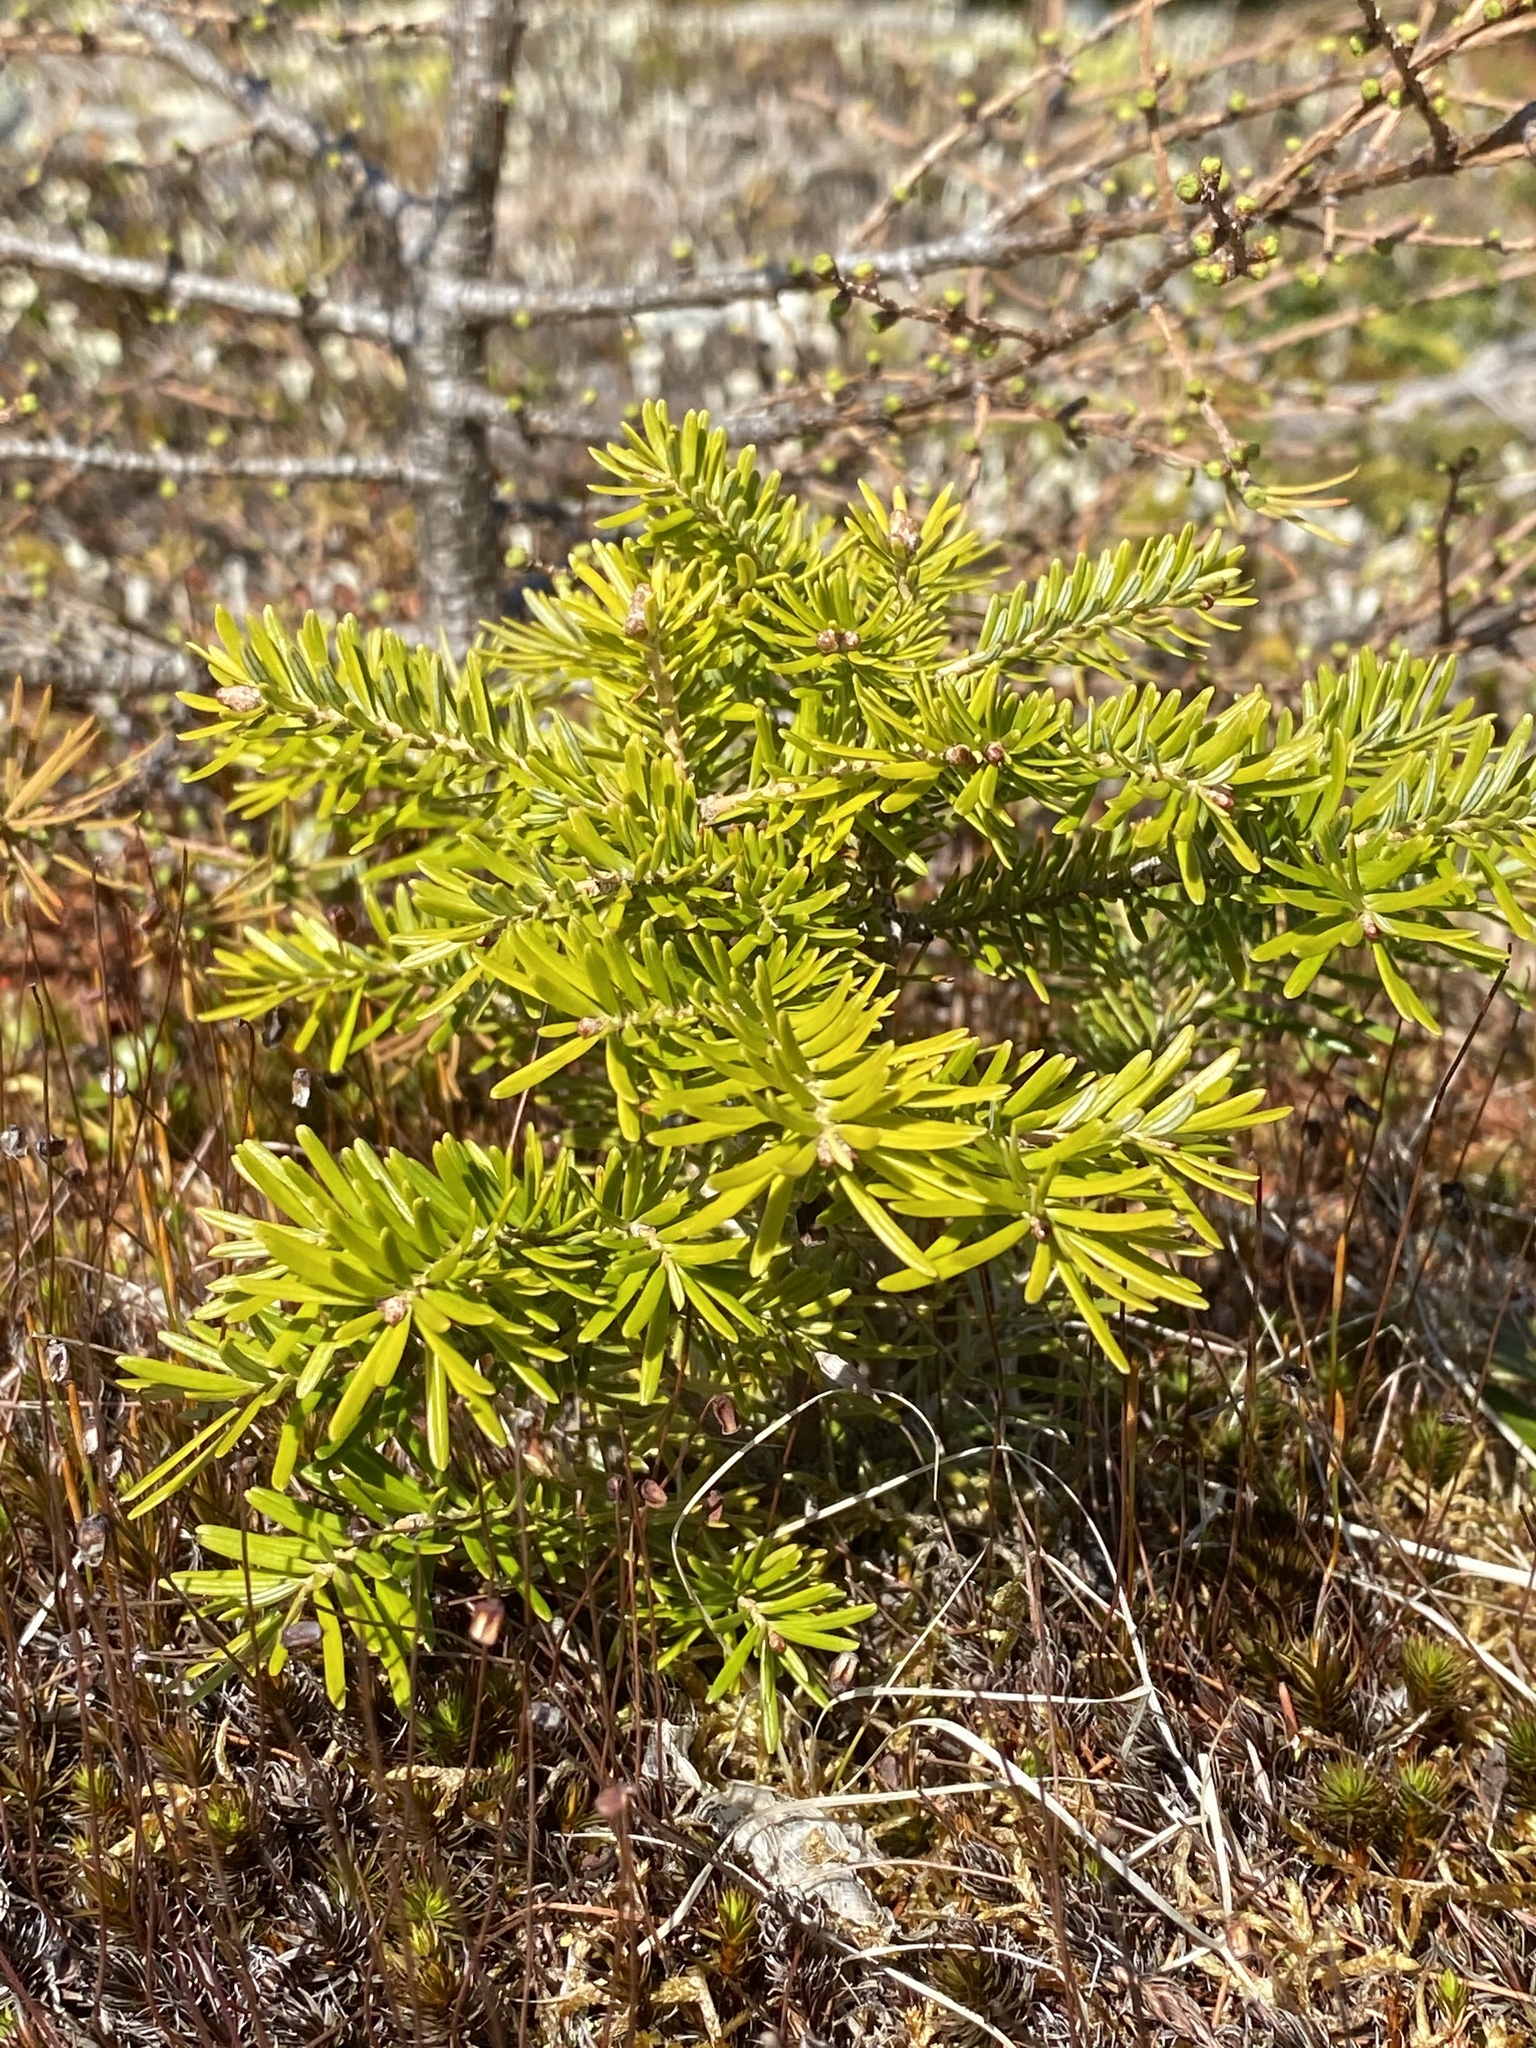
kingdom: Plantae
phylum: Tracheophyta
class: Pinopsida
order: Pinales
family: Pinaceae
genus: Abies
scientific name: Abies balsamea
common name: Balsam fir
